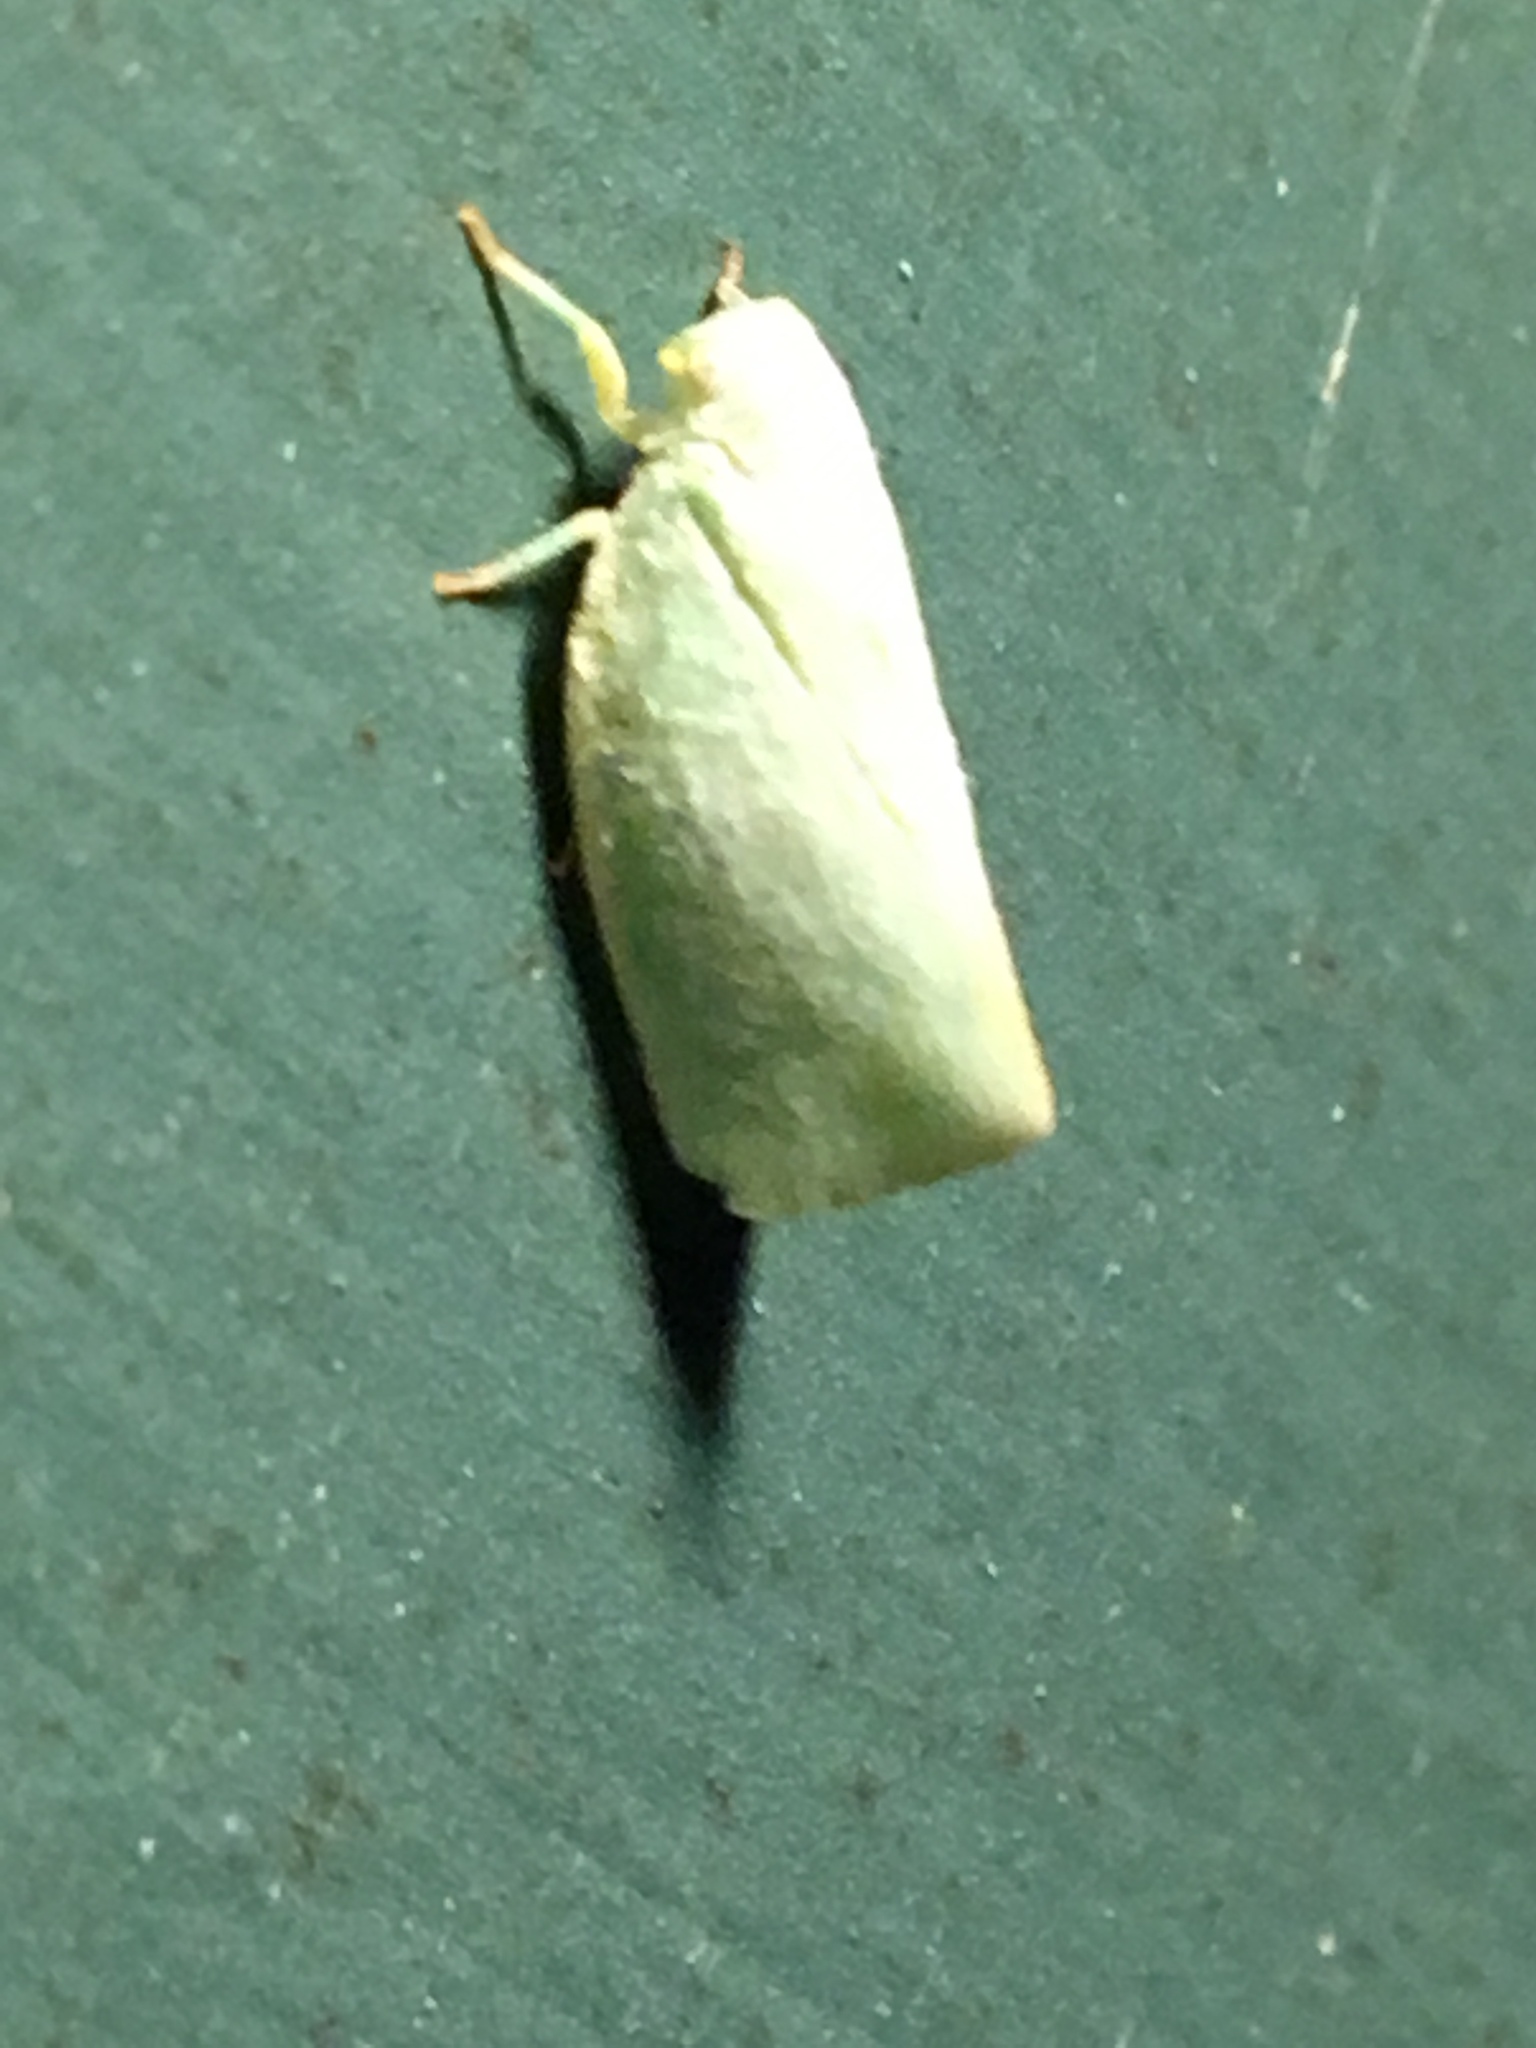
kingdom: Animalia
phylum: Arthropoda
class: Insecta
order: Hemiptera
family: Flatidae
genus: Flatormenis
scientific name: Flatormenis proxima
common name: Northern flatid planthopper
